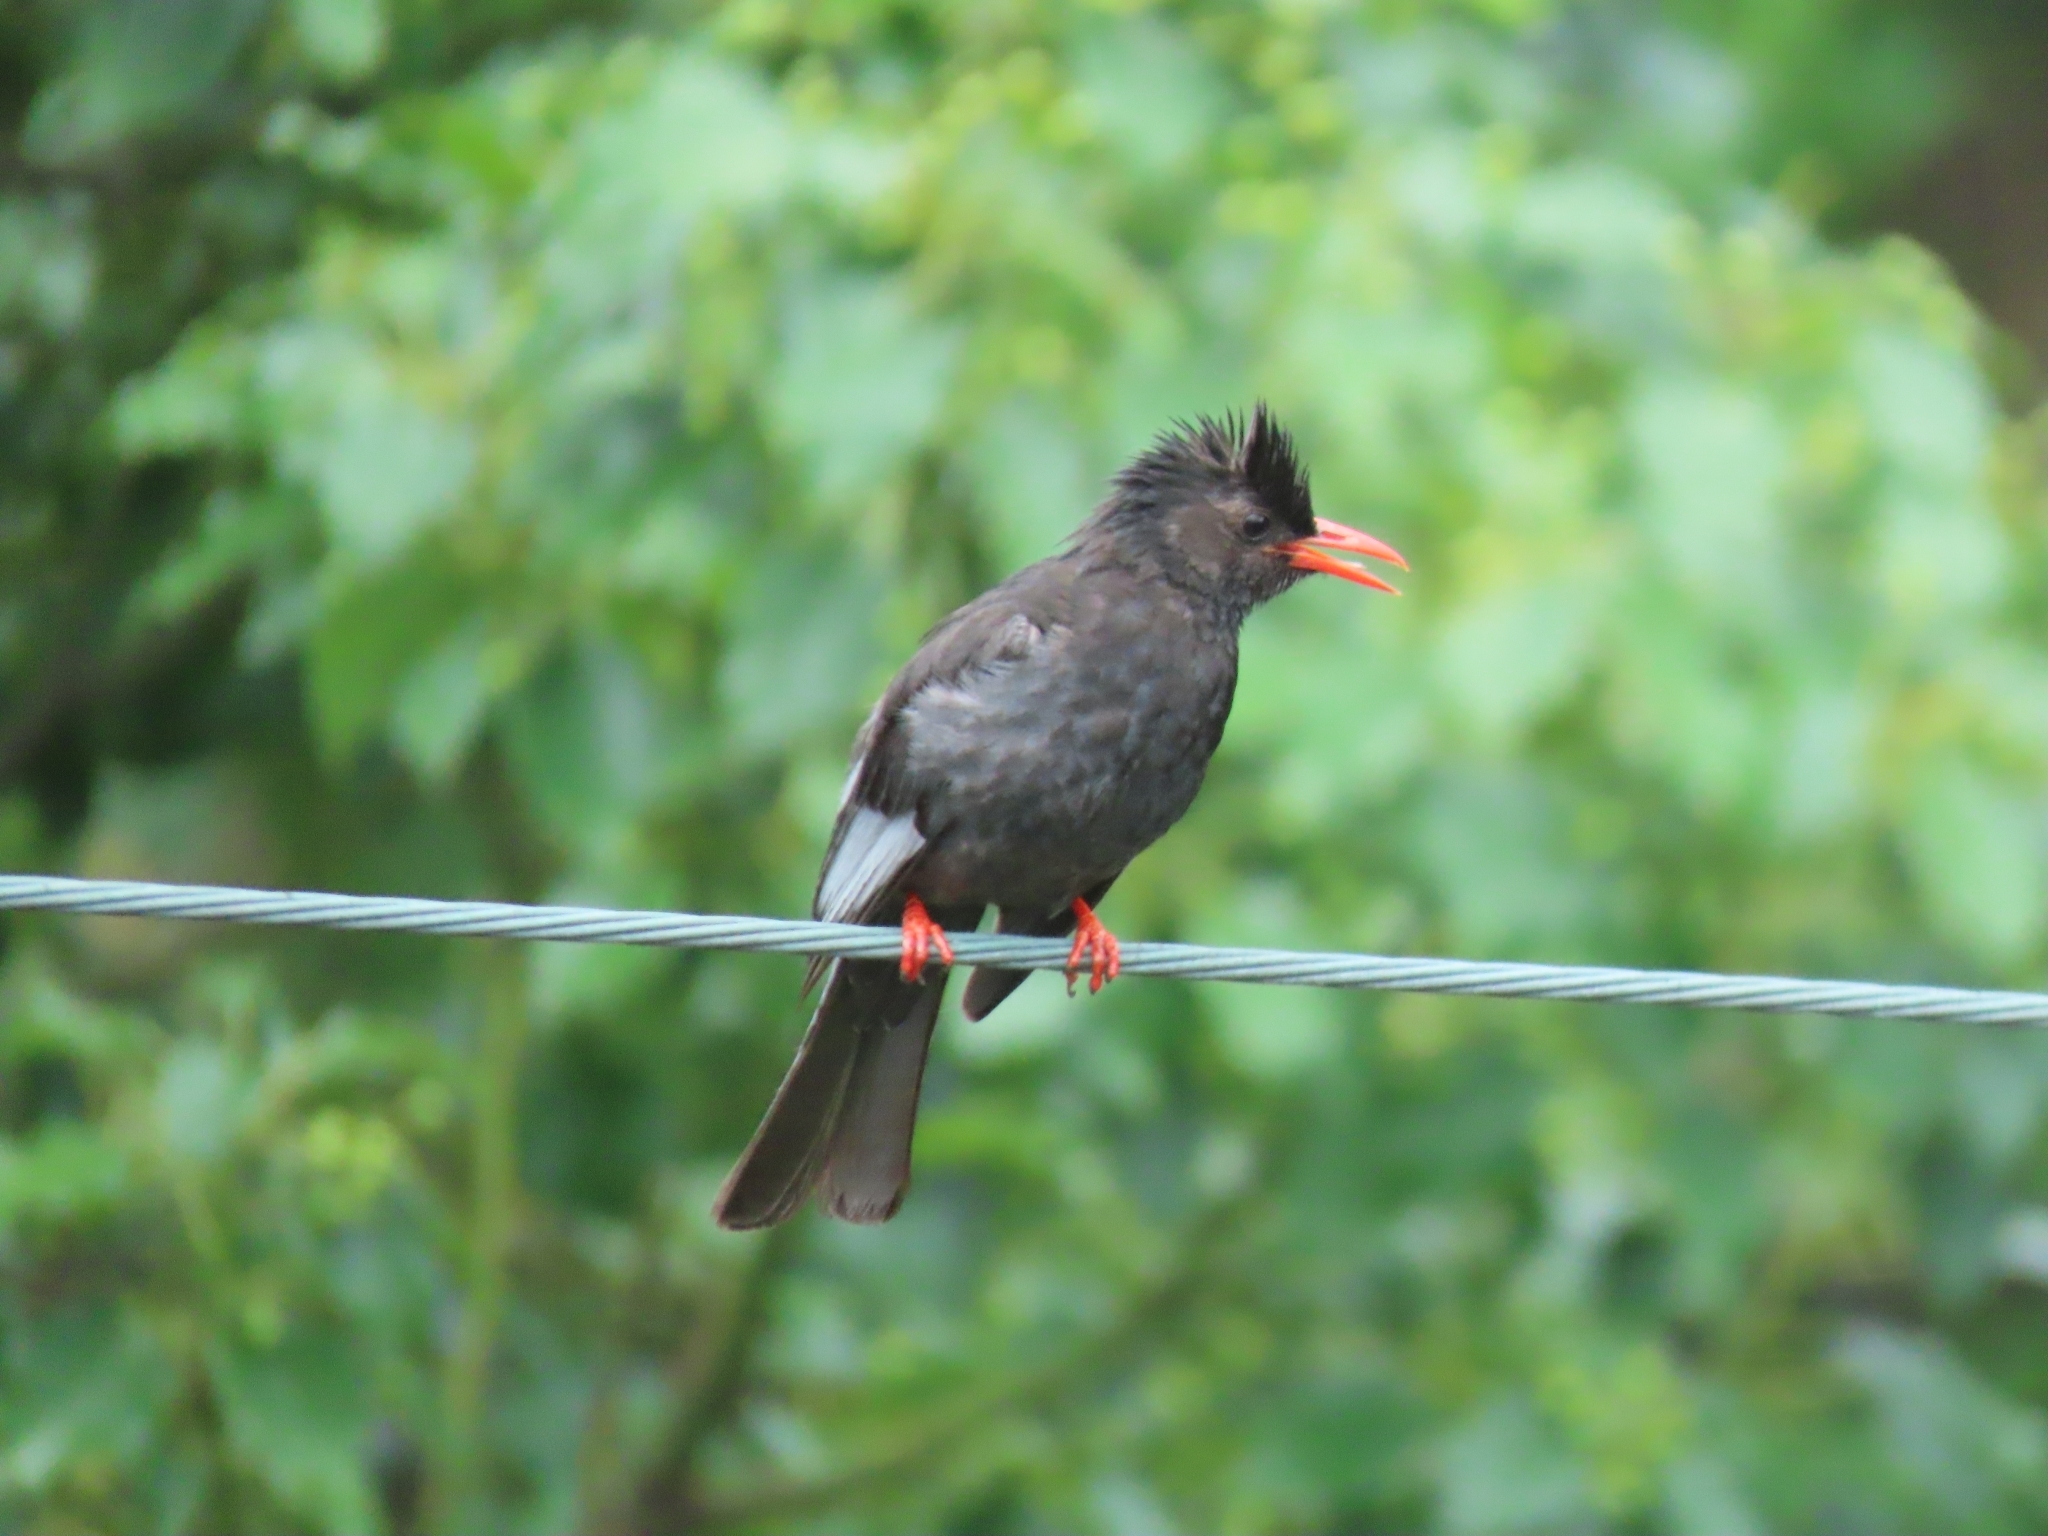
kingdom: Animalia
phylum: Chordata
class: Aves
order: Passeriformes
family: Pycnonotidae
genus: Hypsipetes
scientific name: Hypsipetes leucocephalus
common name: Black bulbul
